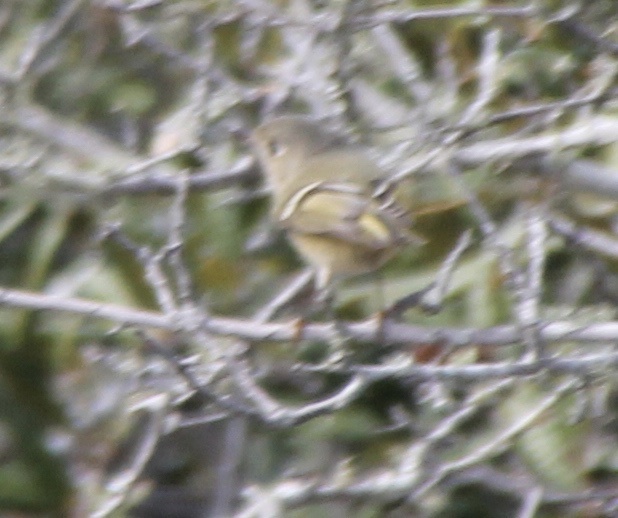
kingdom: Animalia
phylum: Chordata
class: Aves
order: Passeriformes
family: Regulidae
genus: Regulus
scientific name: Regulus calendula
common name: Ruby-crowned kinglet
